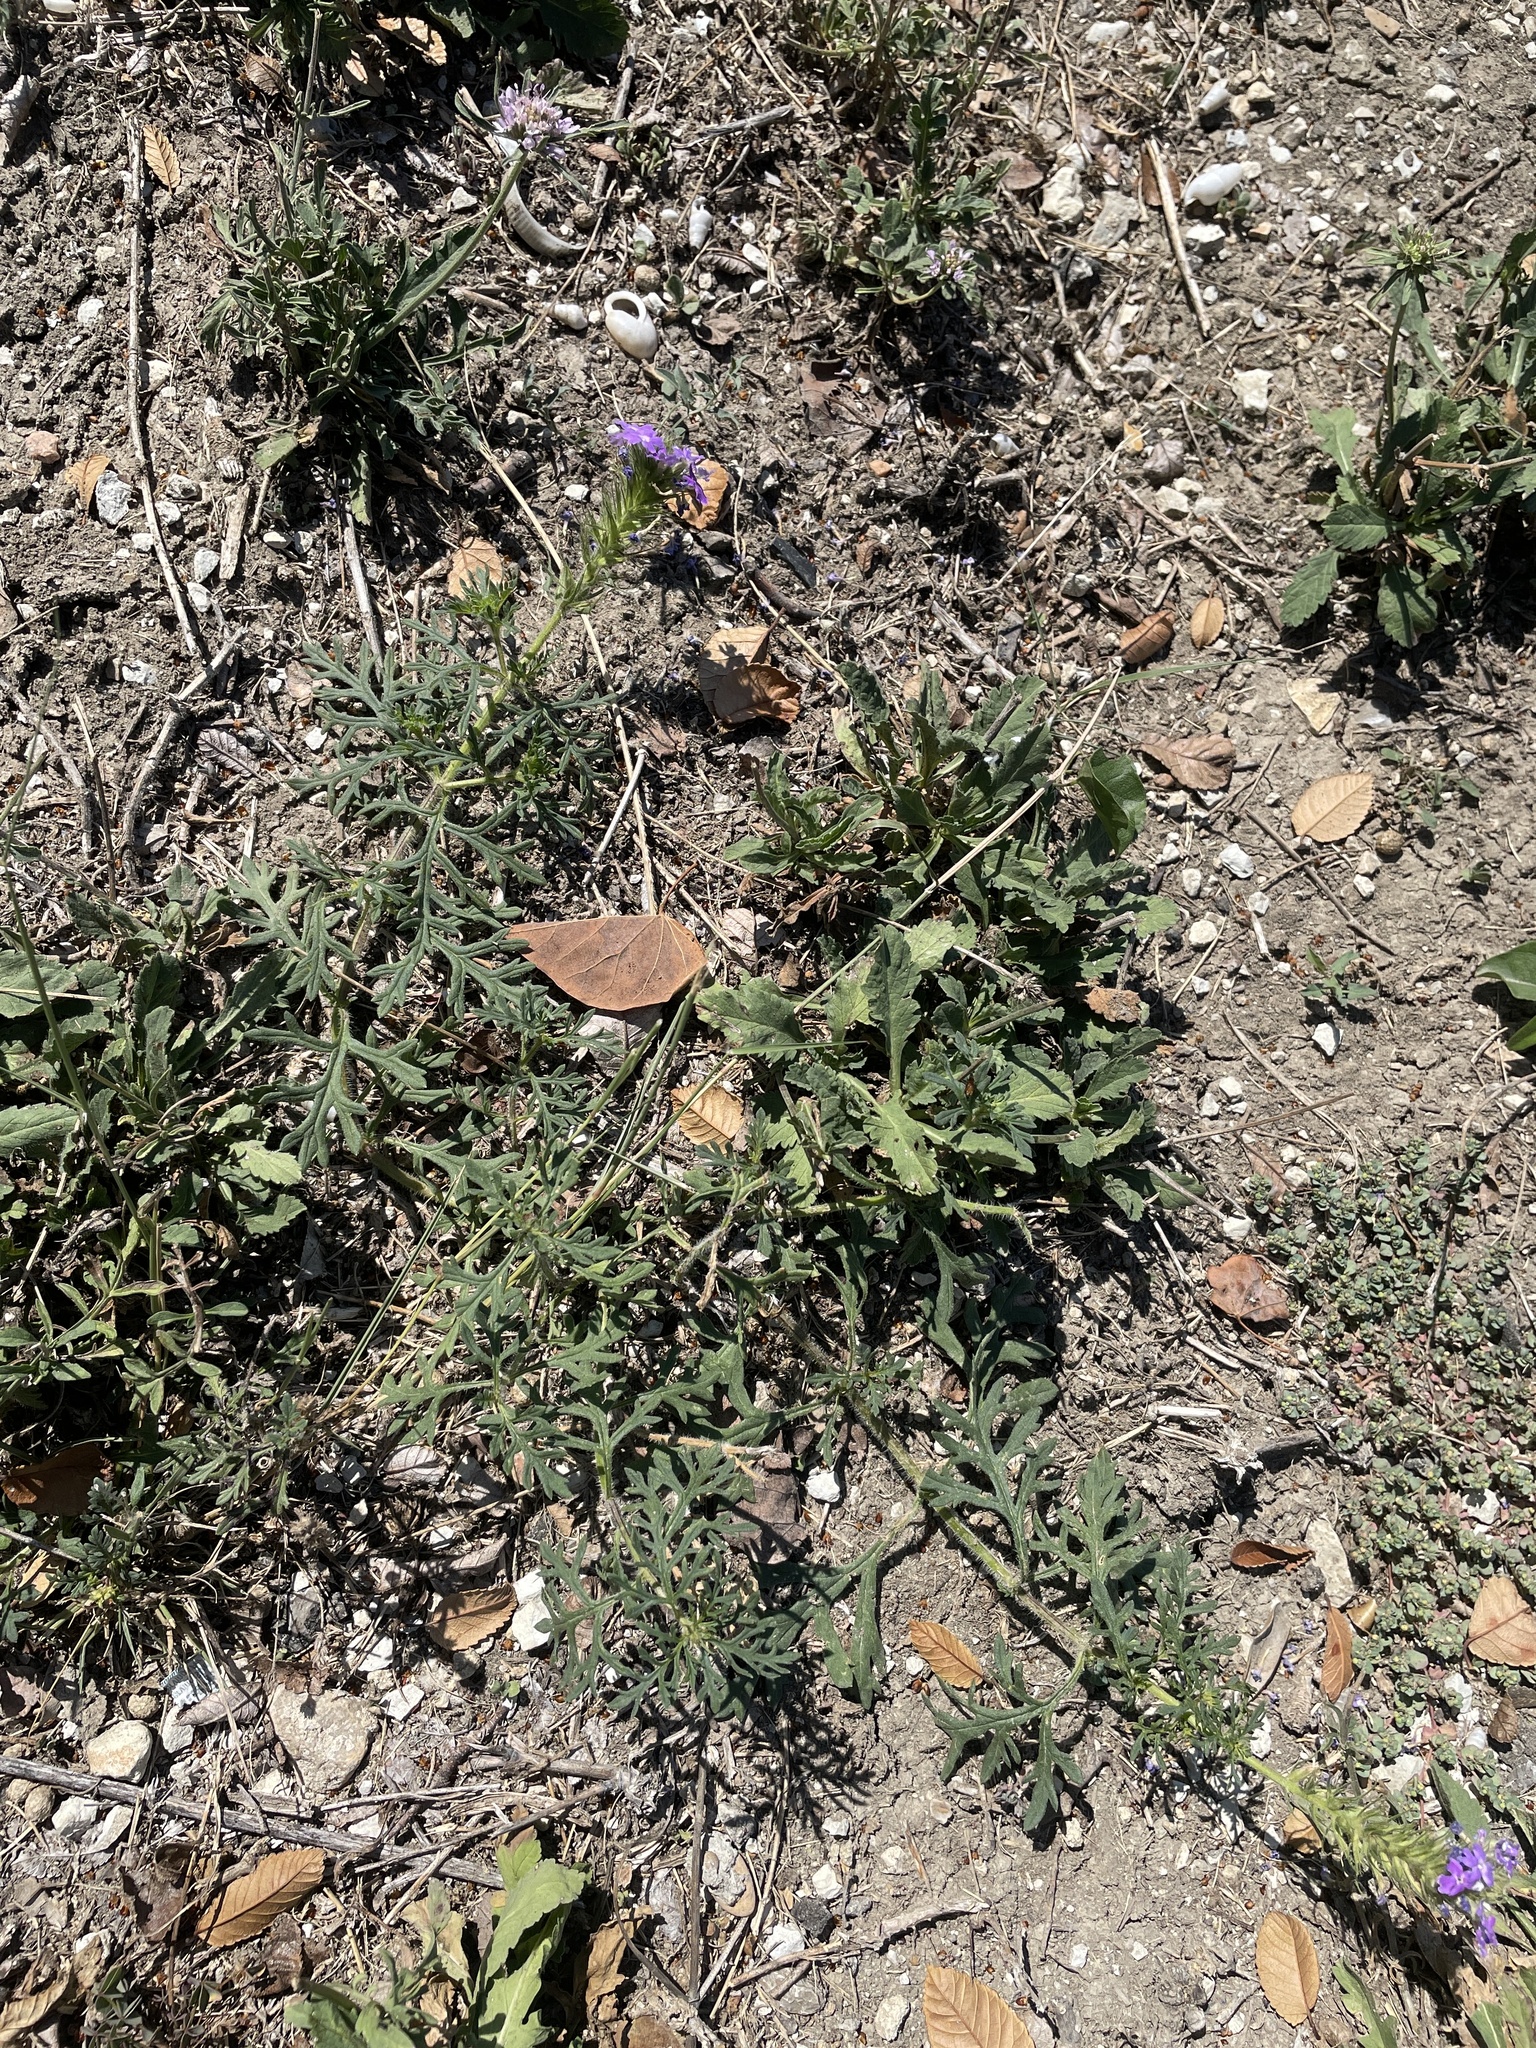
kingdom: Plantae
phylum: Tracheophyta
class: Magnoliopsida
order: Lamiales
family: Verbenaceae
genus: Verbena
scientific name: Verbena bipinnatifida
